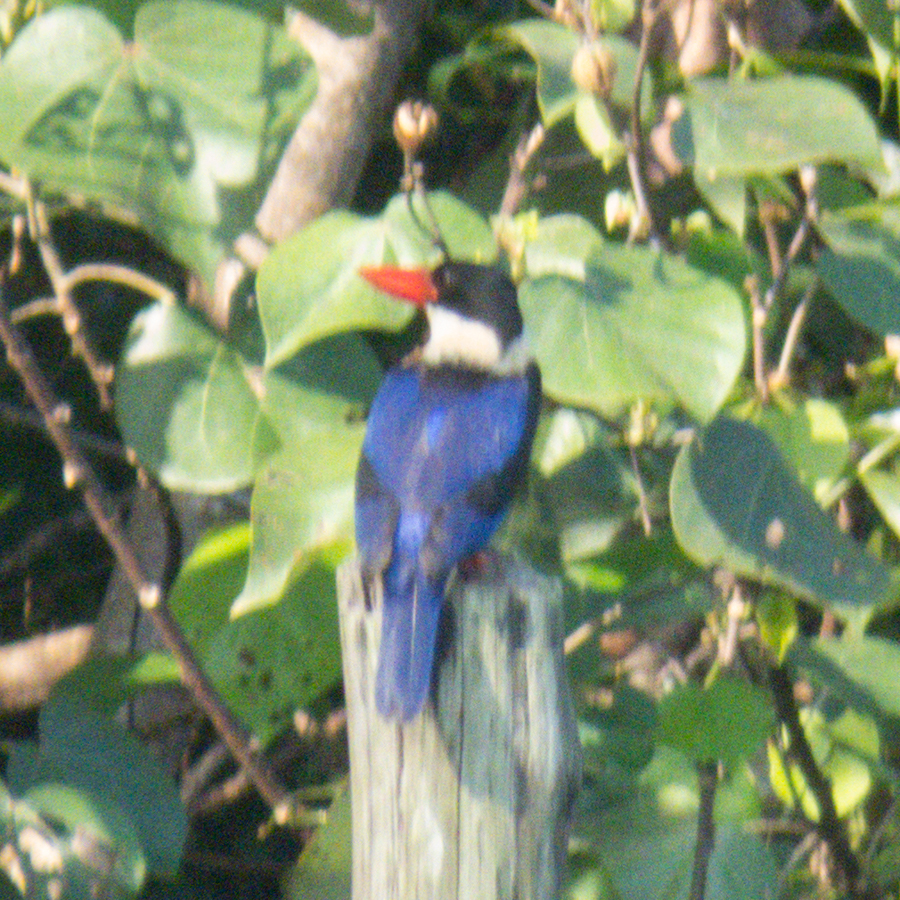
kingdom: Animalia
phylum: Chordata
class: Aves
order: Coraciiformes
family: Alcedinidae
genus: Halcyon
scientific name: Halcyon pileata
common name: Black-capped kingfisher
